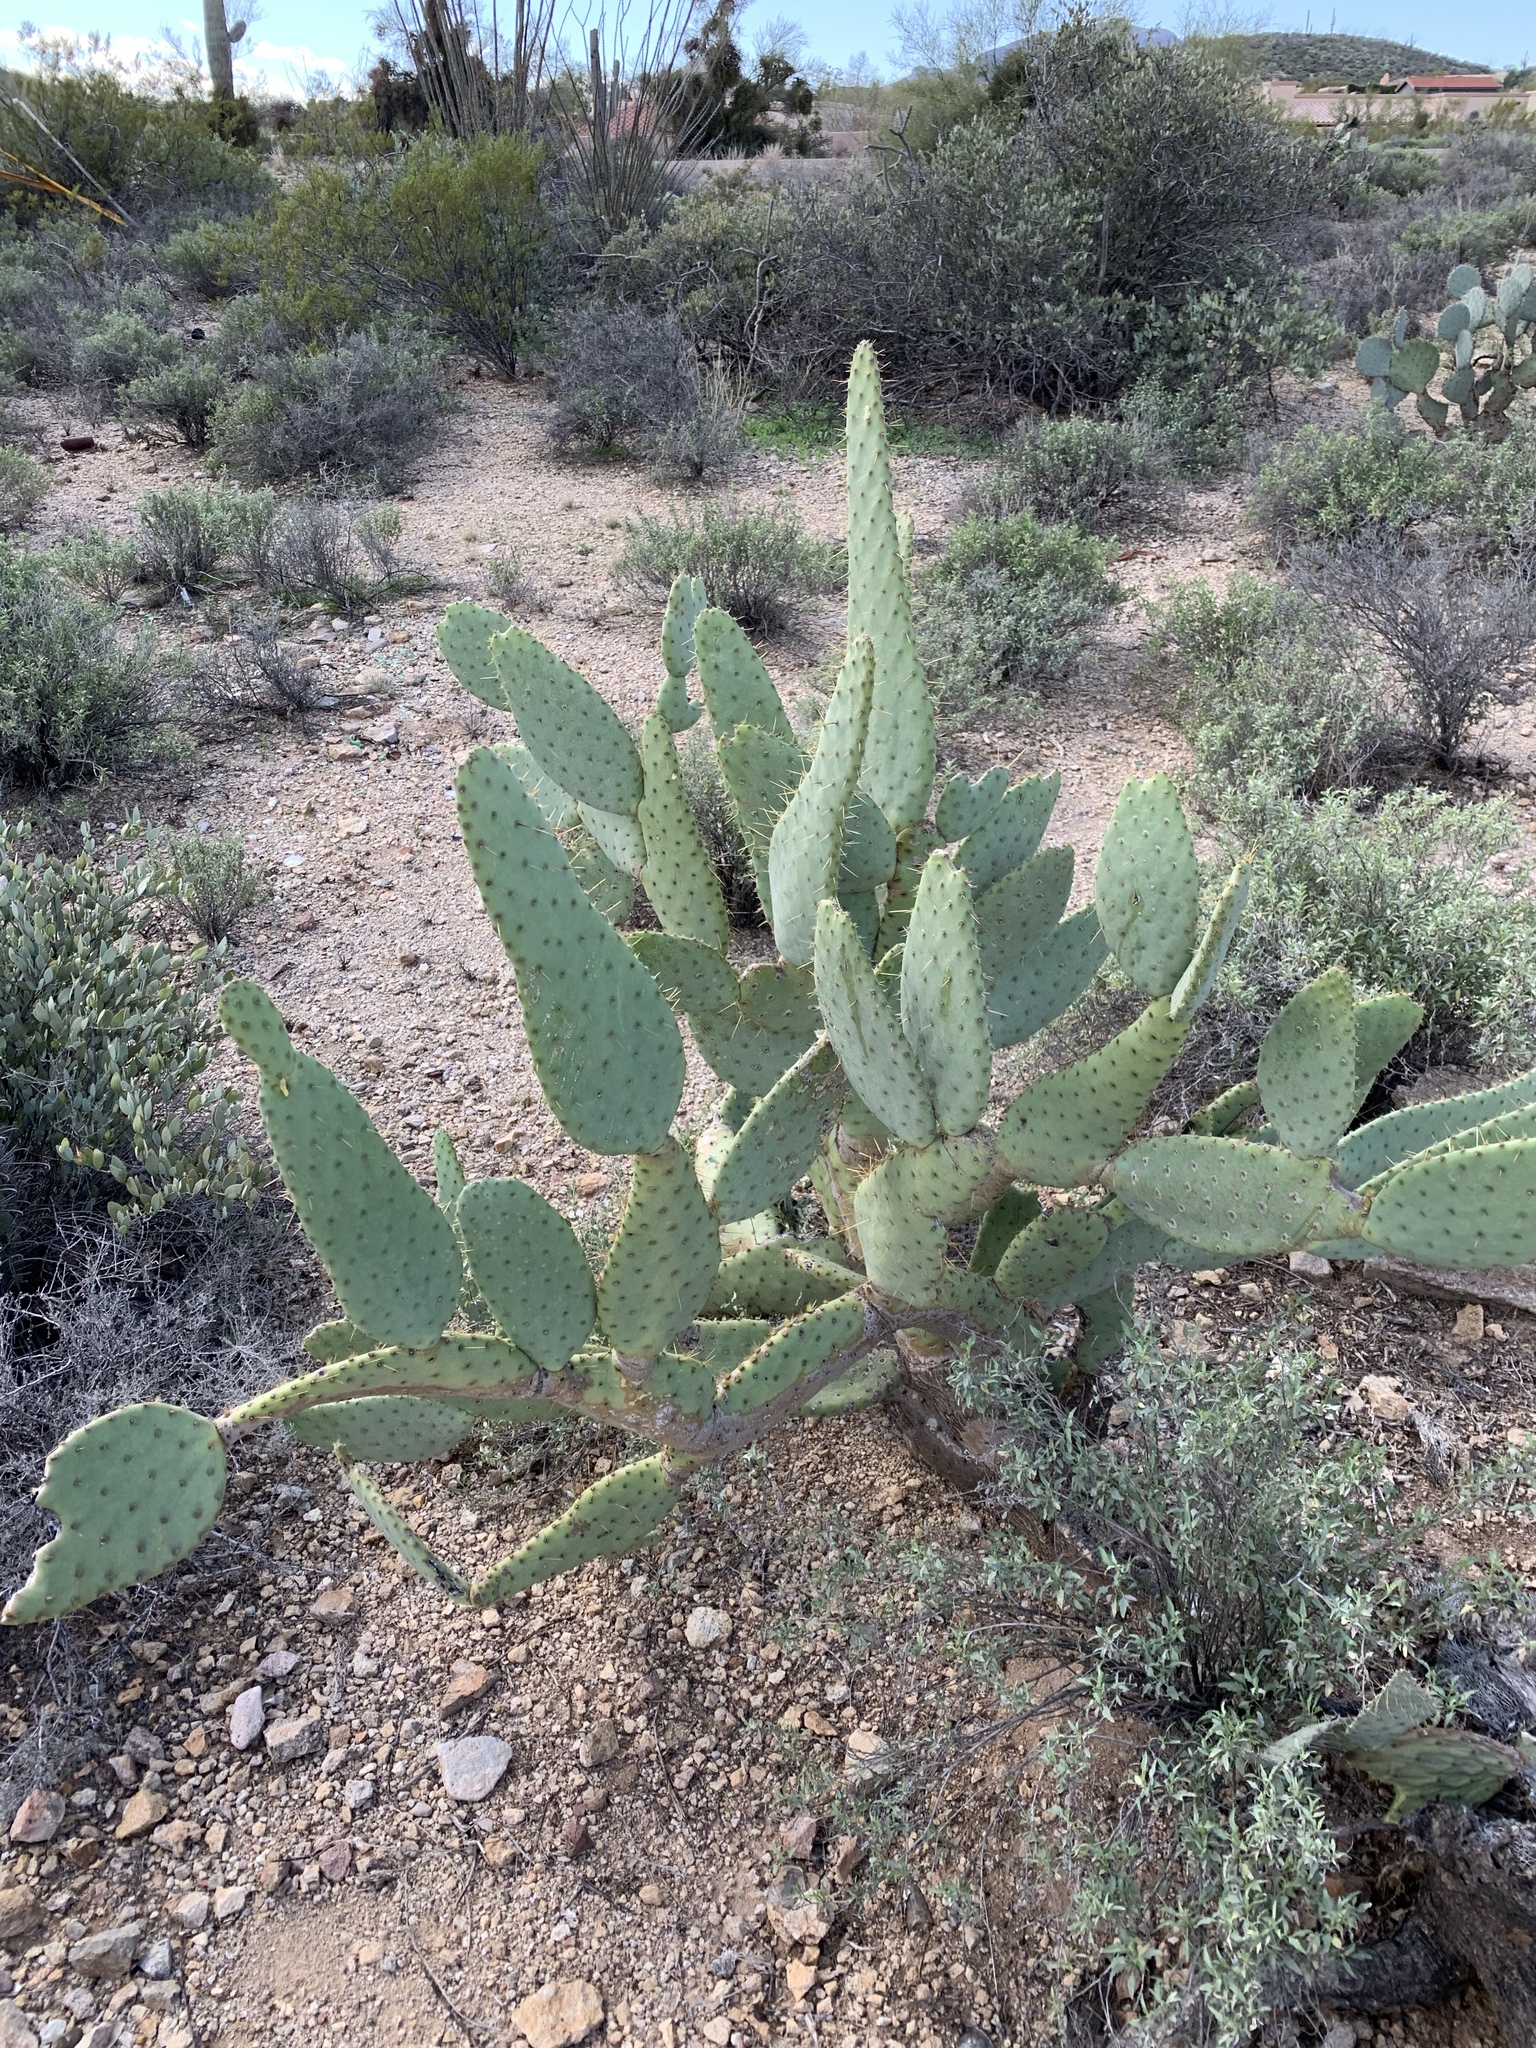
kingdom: Plantae
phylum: Tracheophyta
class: Magnoliopsida
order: Caryophyllales
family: Cactaceae
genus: Opuntia
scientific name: Opuntia engelmannii
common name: Cactus-apple
